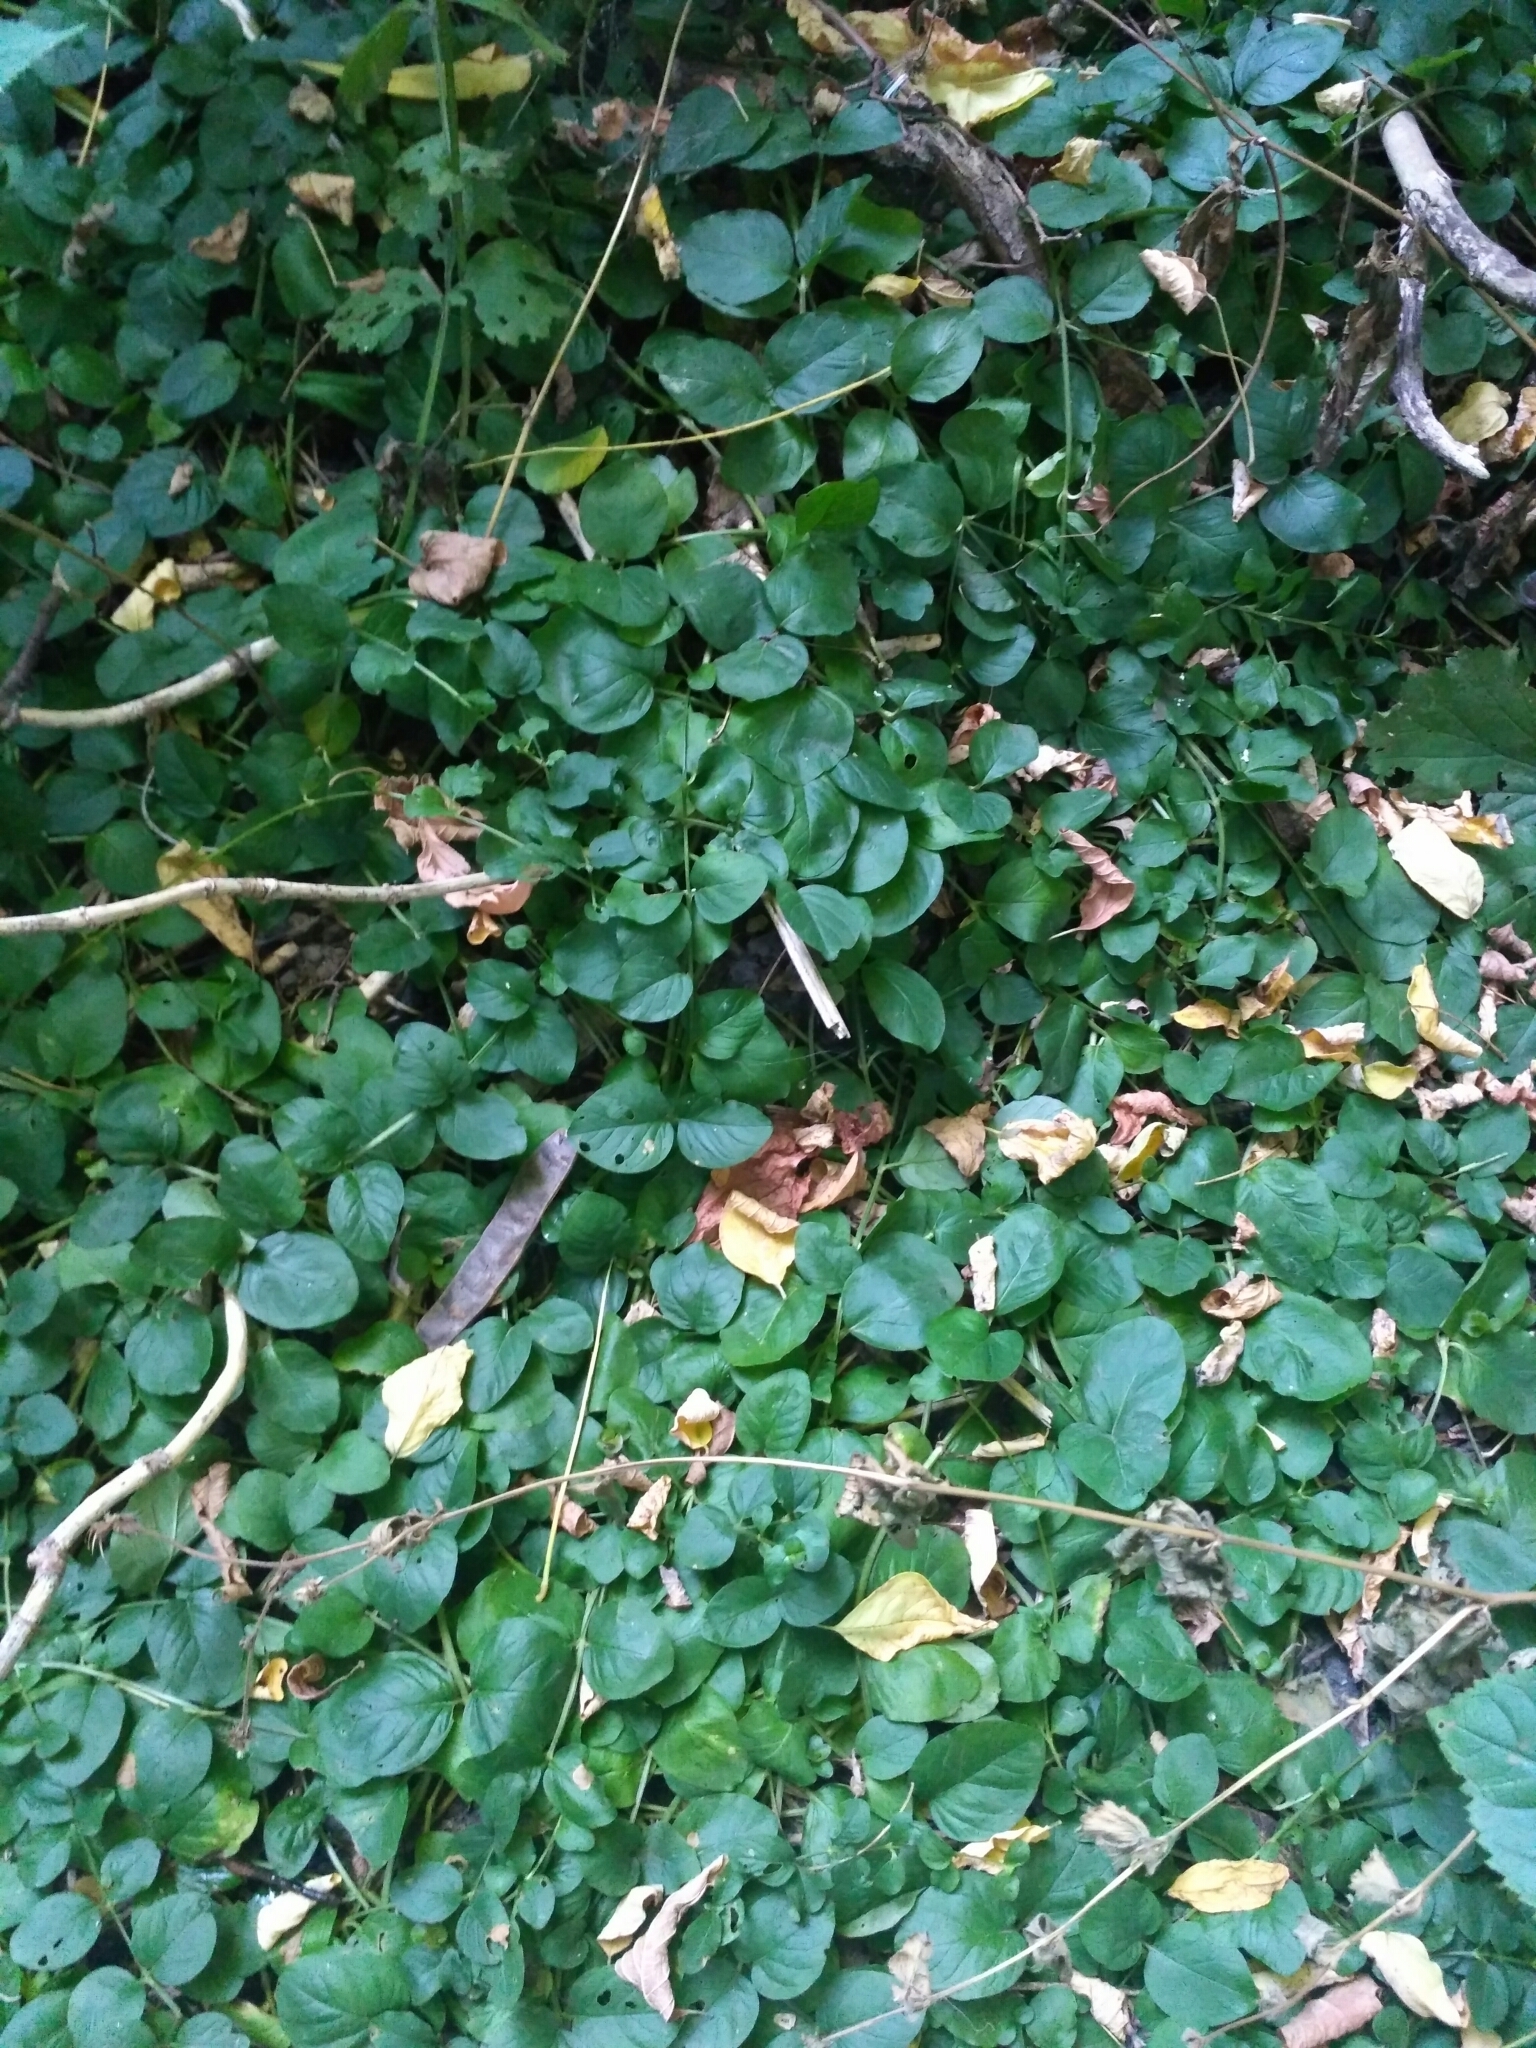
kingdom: Plantae
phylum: Tracheophyta
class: Magnoliopsida
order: Ericales
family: Primulaceae
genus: Lysimachia
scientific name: Lysimachia nummularia
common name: Moneywort
